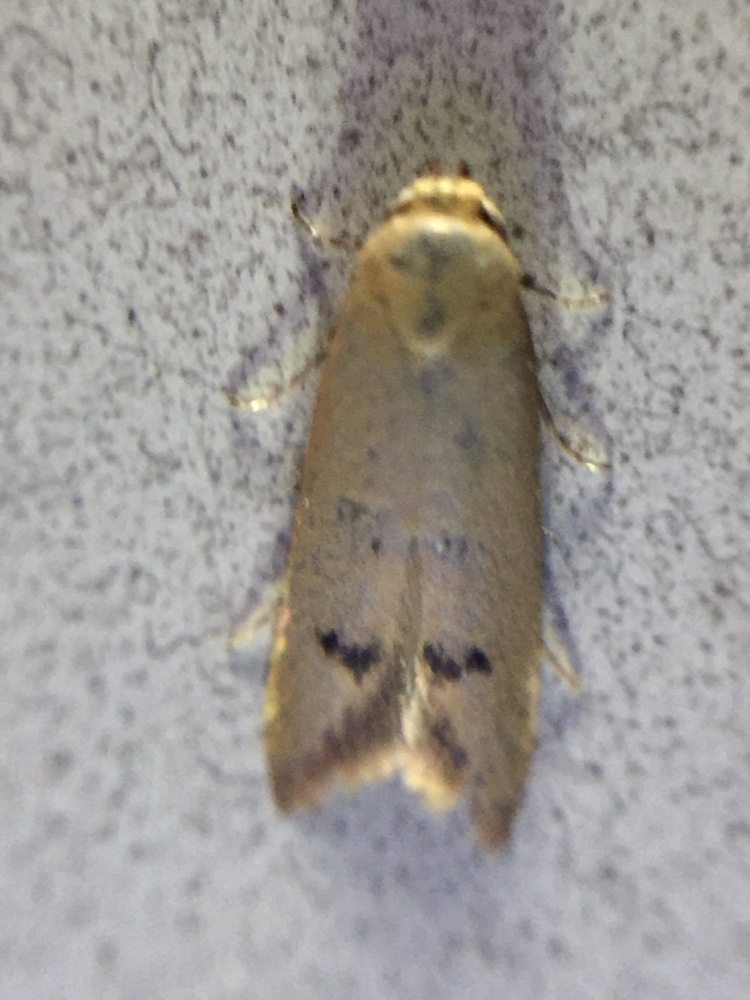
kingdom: Animalia
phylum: Arthropoda
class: Insecta
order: Lepidoptera
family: Oecophoridae
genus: Tachystola
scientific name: Tachystola hemisema
